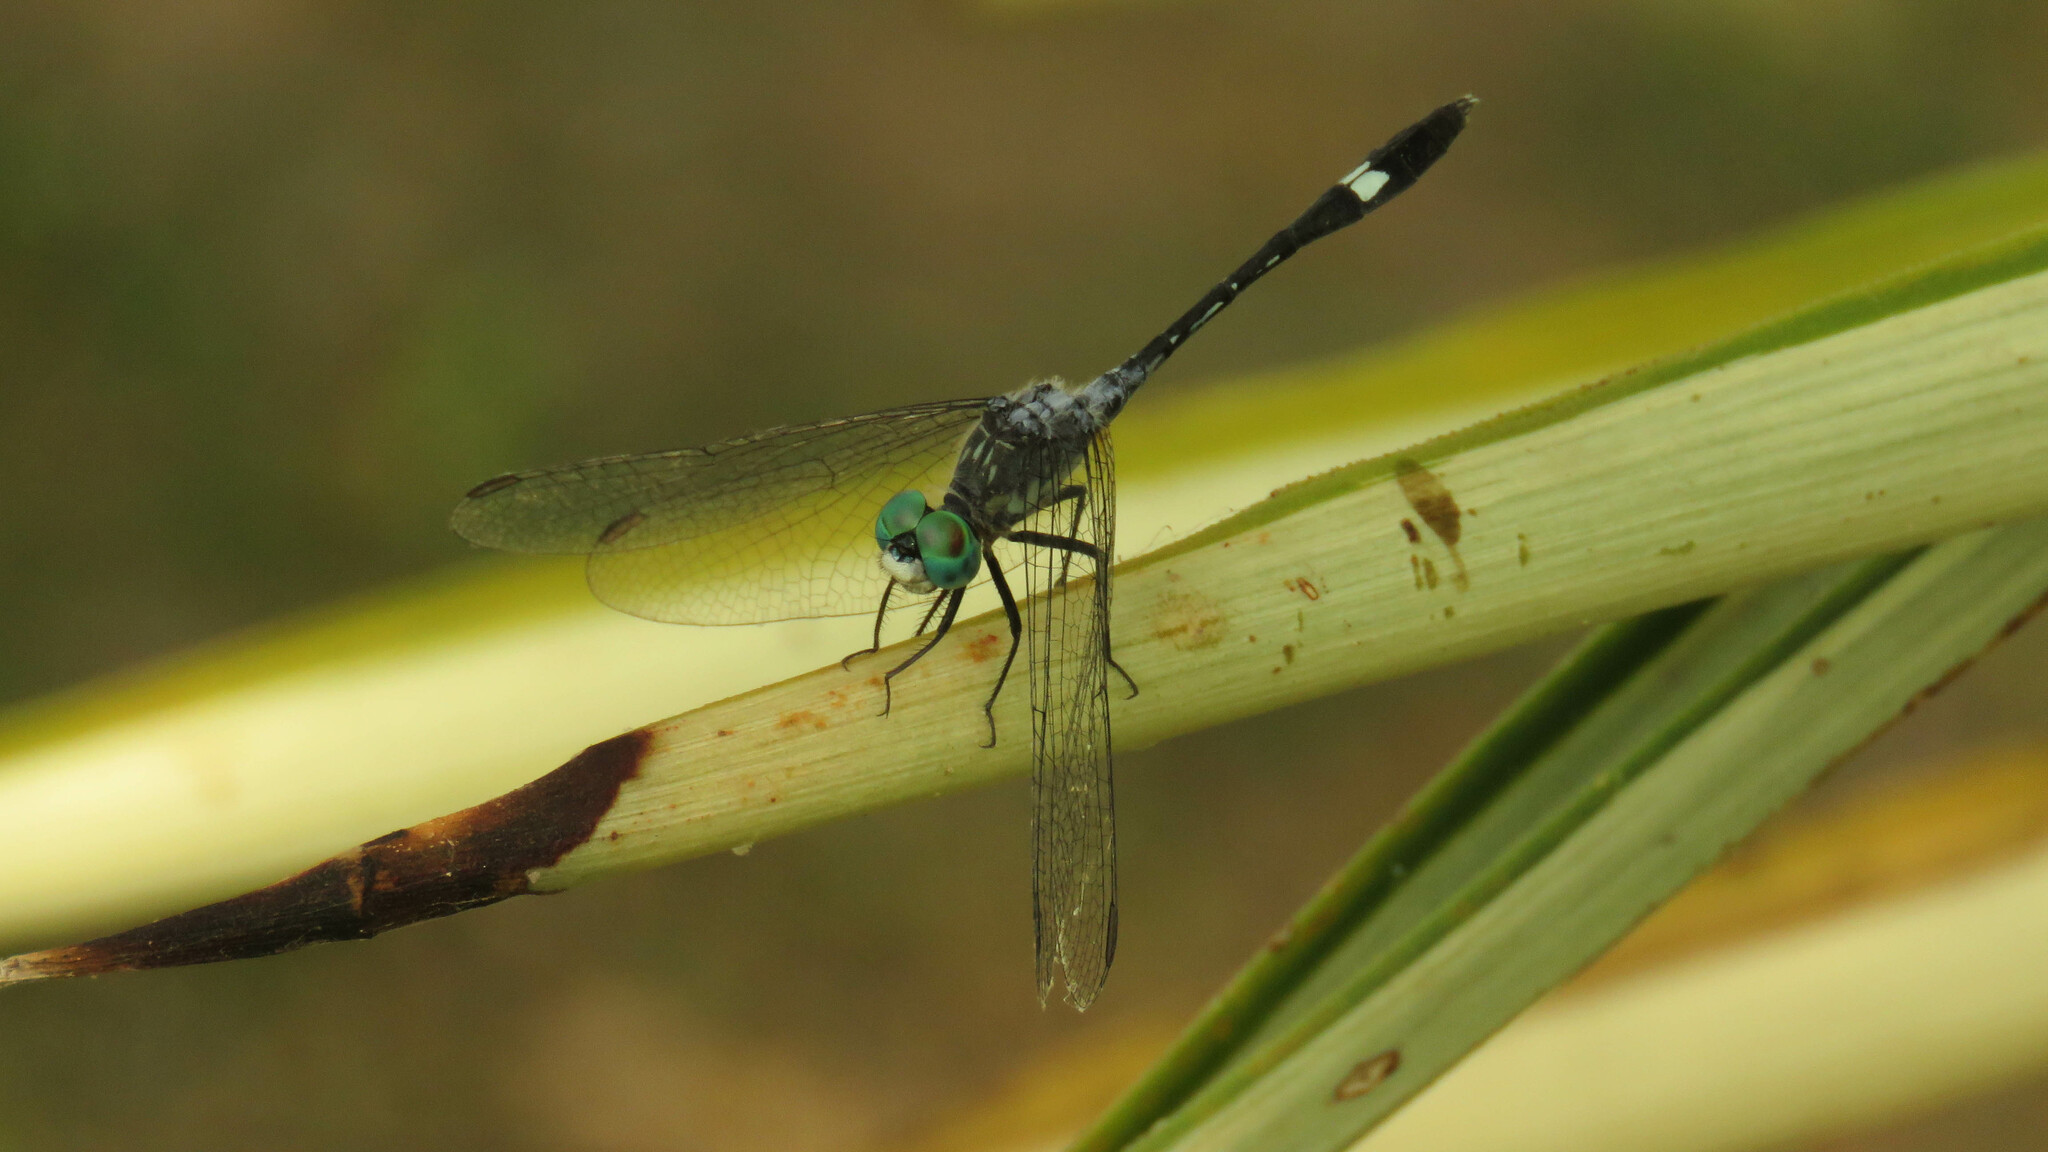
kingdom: Animalia
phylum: Arthropoda
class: Insecta
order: Odonata
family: Libellulidae
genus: Micrathyria
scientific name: Micrathyria longifasciata
